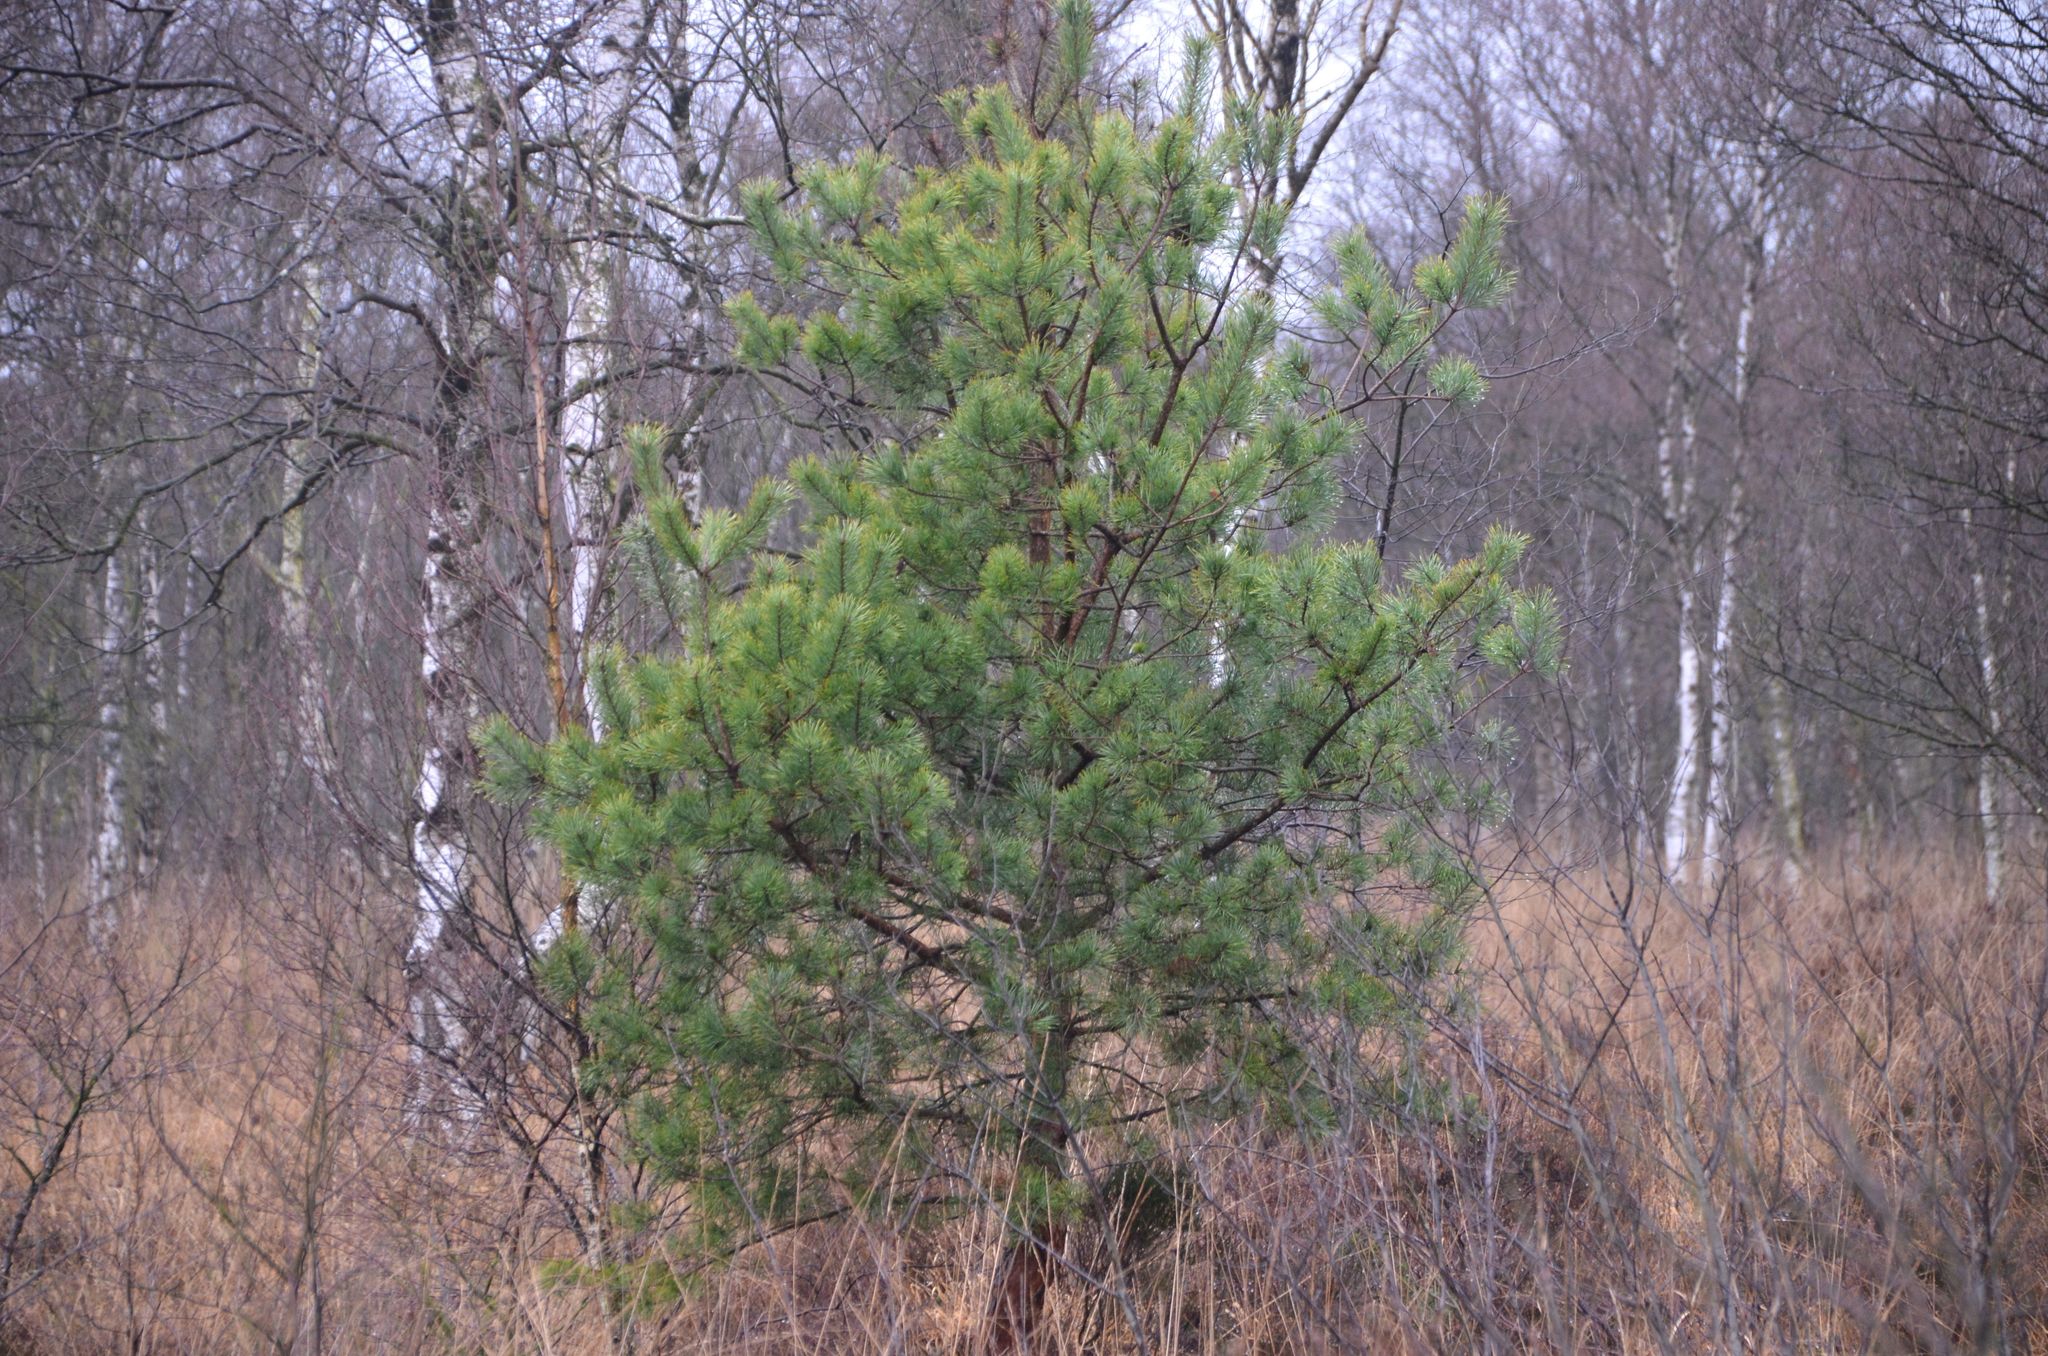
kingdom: Plantae
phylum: Tracheophyta
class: Pinopsida
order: Pinales
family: Pinaceae
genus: Pinus
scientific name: Pinus sylvestris
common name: Scots pine
